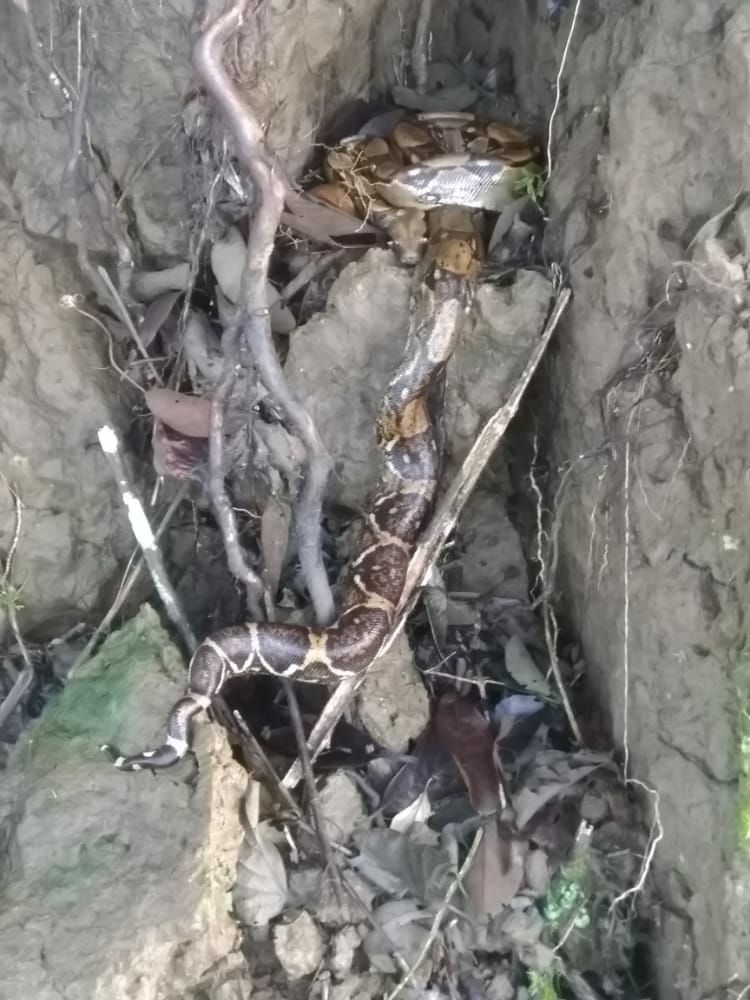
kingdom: Animalia
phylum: Chordata
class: Squamata
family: Boidae
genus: Boa
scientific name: Boa imperator
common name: Central american boa
